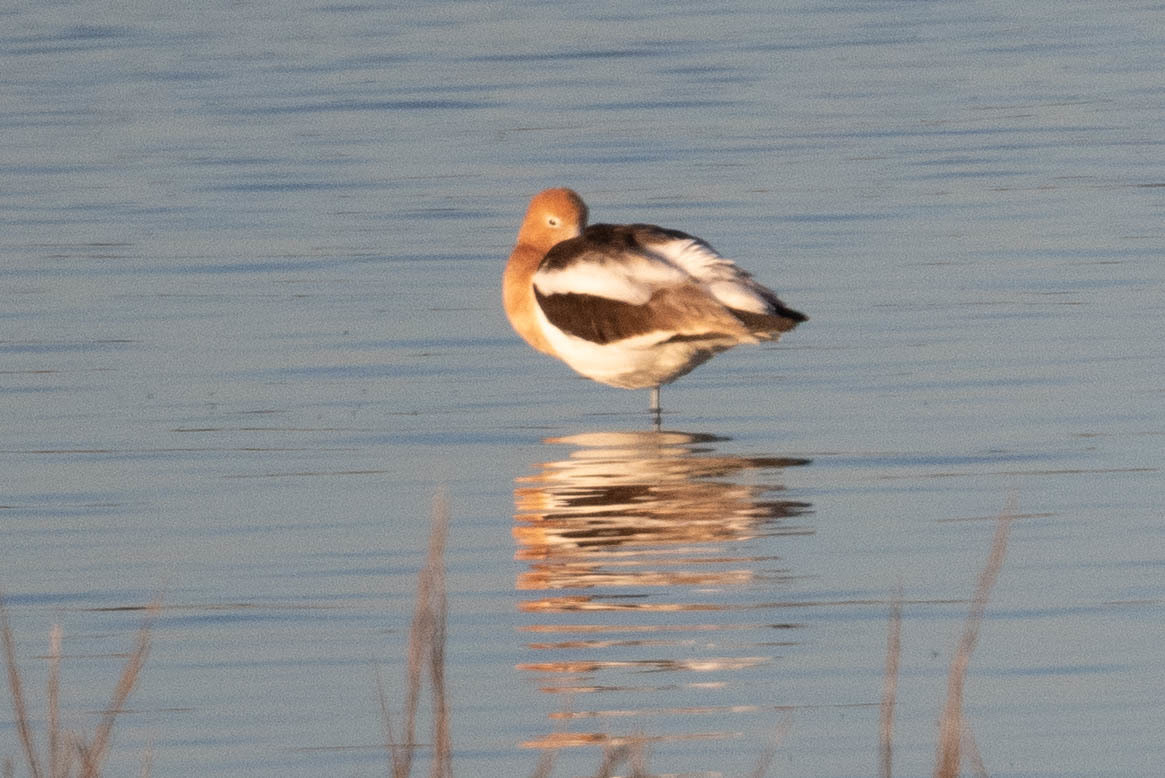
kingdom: Animalia
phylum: Chordata
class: Aves
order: Charadriiformes
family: Recurvirostridae
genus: Recurvirostra
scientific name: Recurvirostra americana
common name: American avocet
